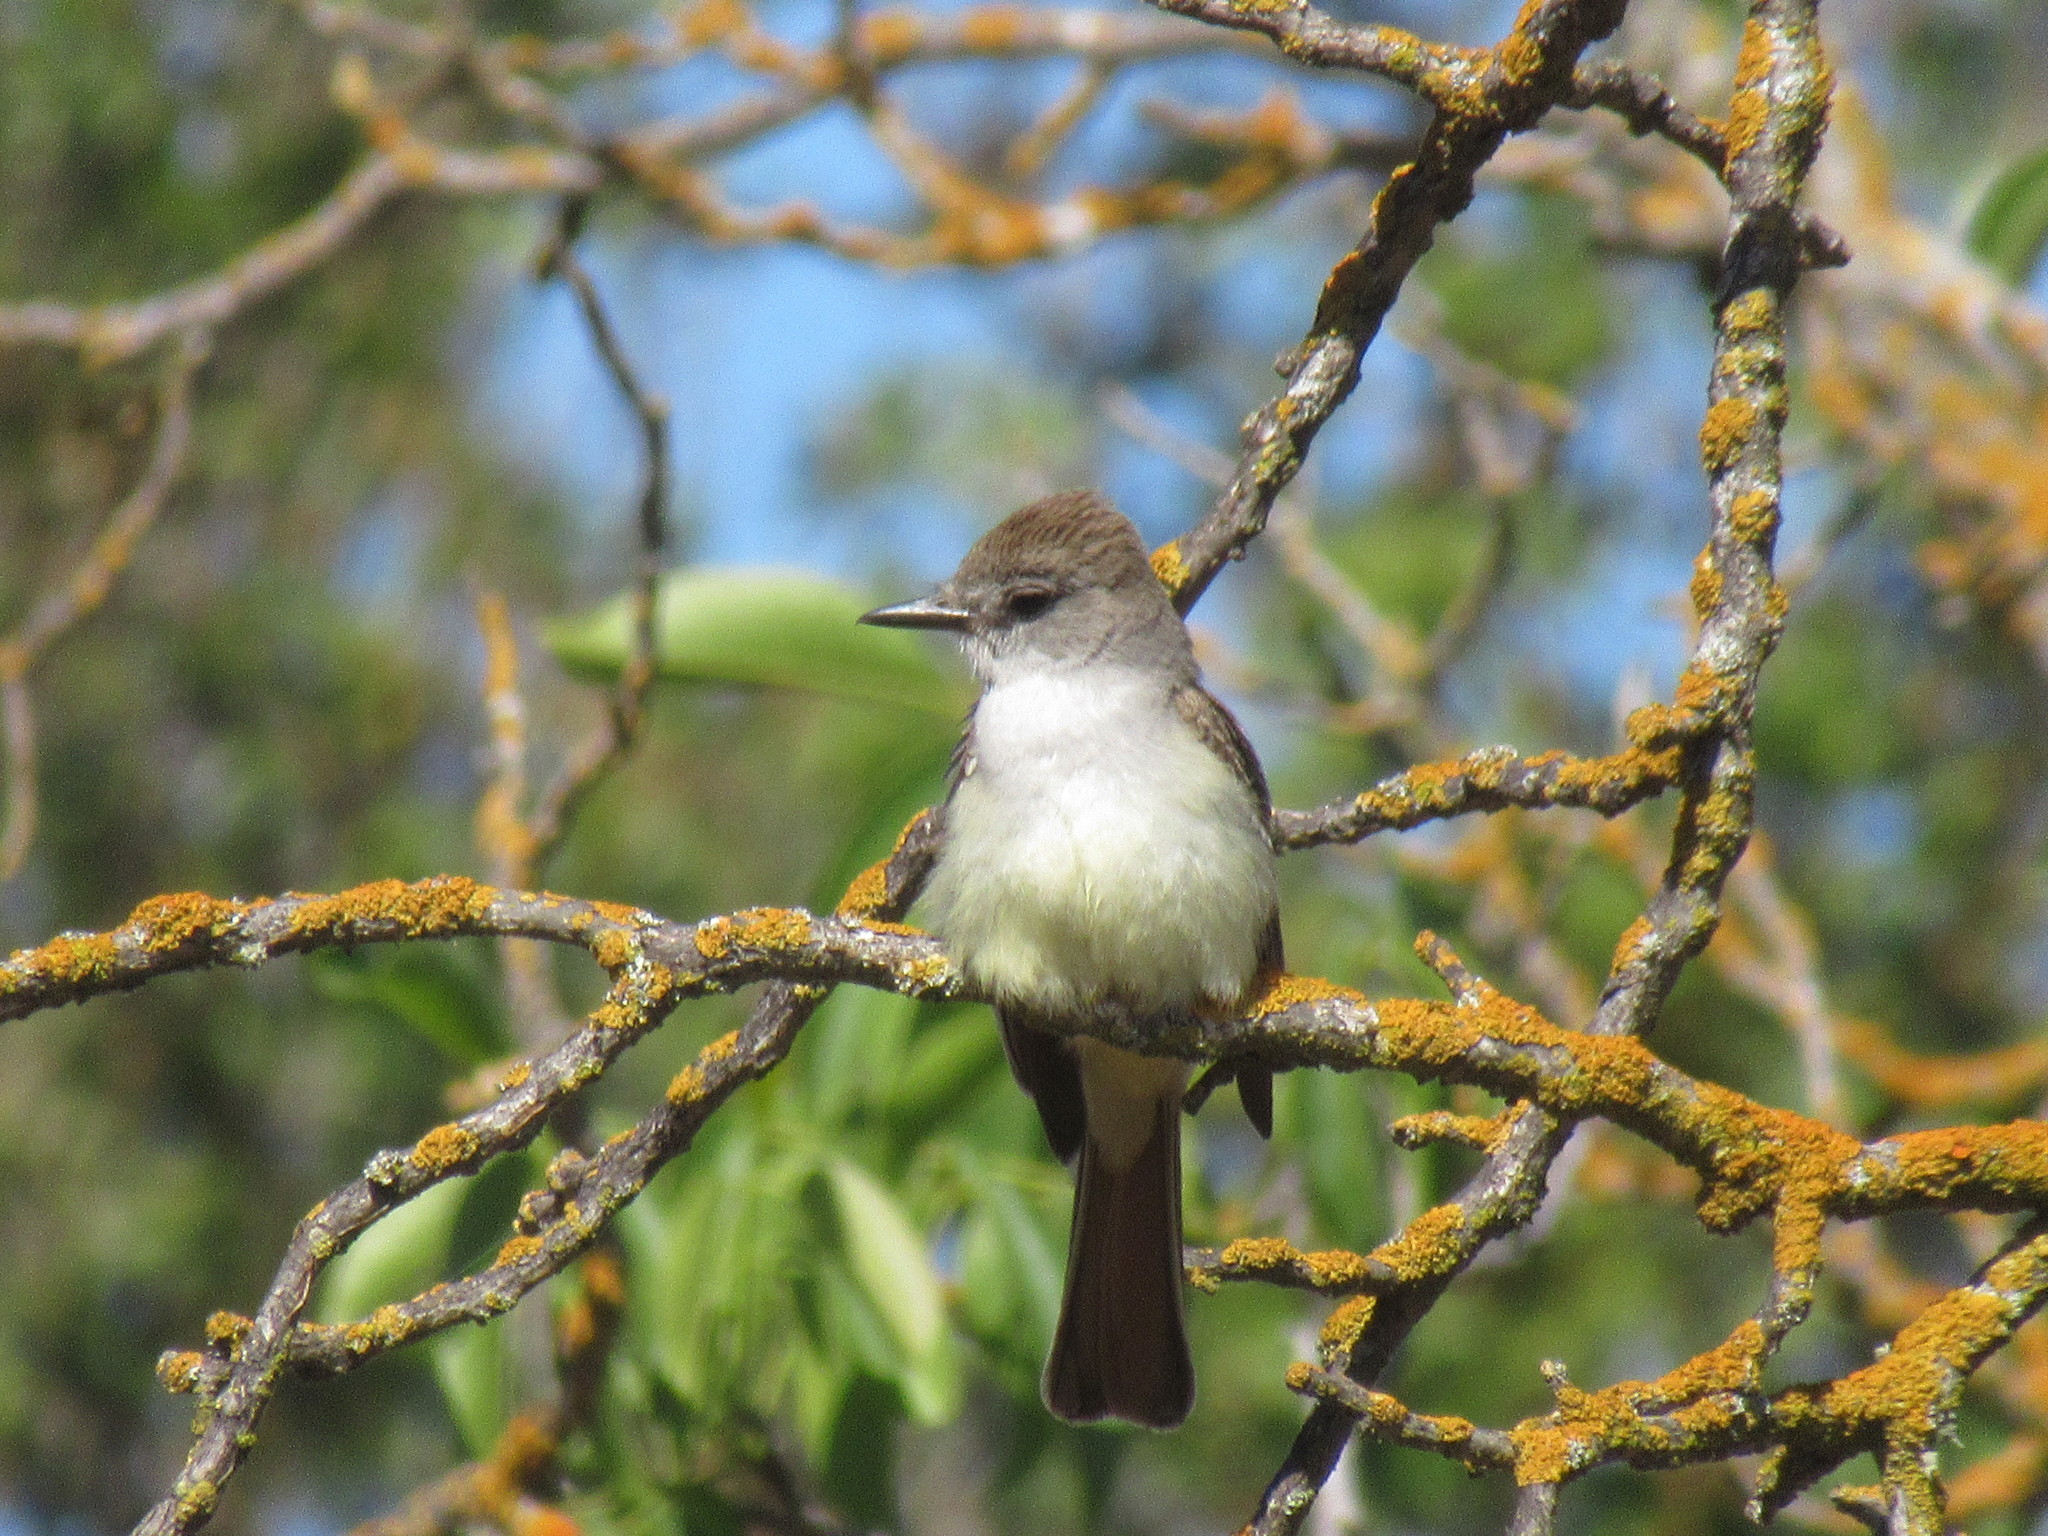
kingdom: Animalia
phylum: Chordata
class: Aves
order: Passeriformes
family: Tyrannidae
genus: Myiarchus
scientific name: Myiarchus cinerascens
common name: Ash-throated flycatcher
